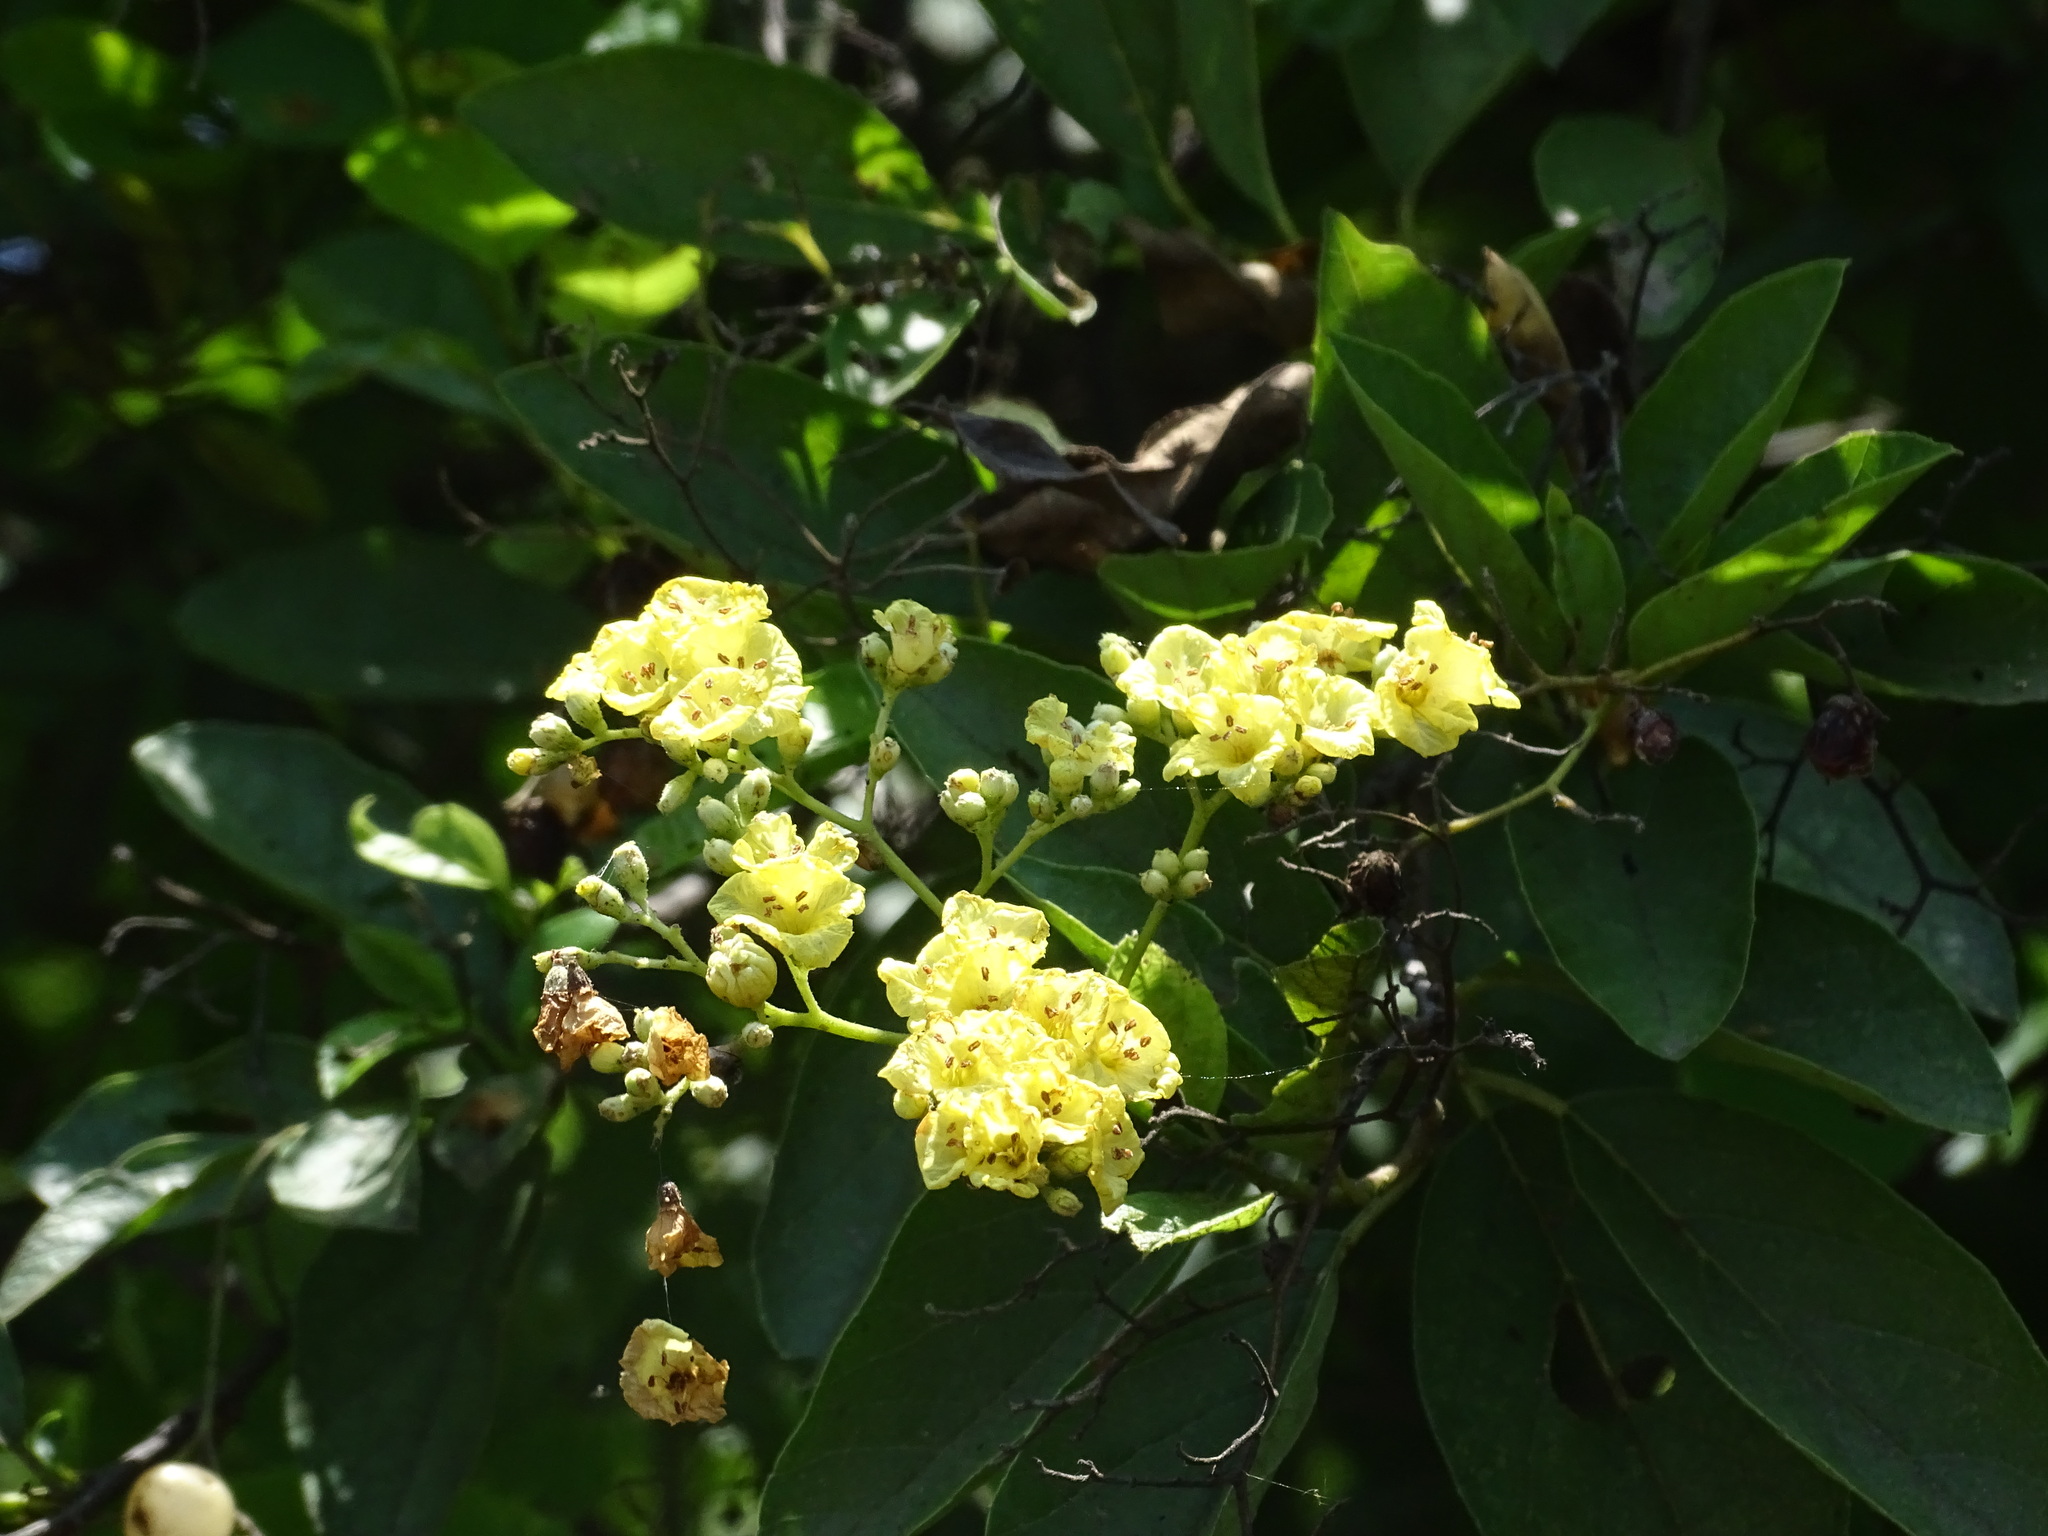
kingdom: Plantae
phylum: Tracheophyta
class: Magnoliopsida
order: Boraginales
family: Cordiaceae
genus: Cordia
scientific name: Cordia dentata
